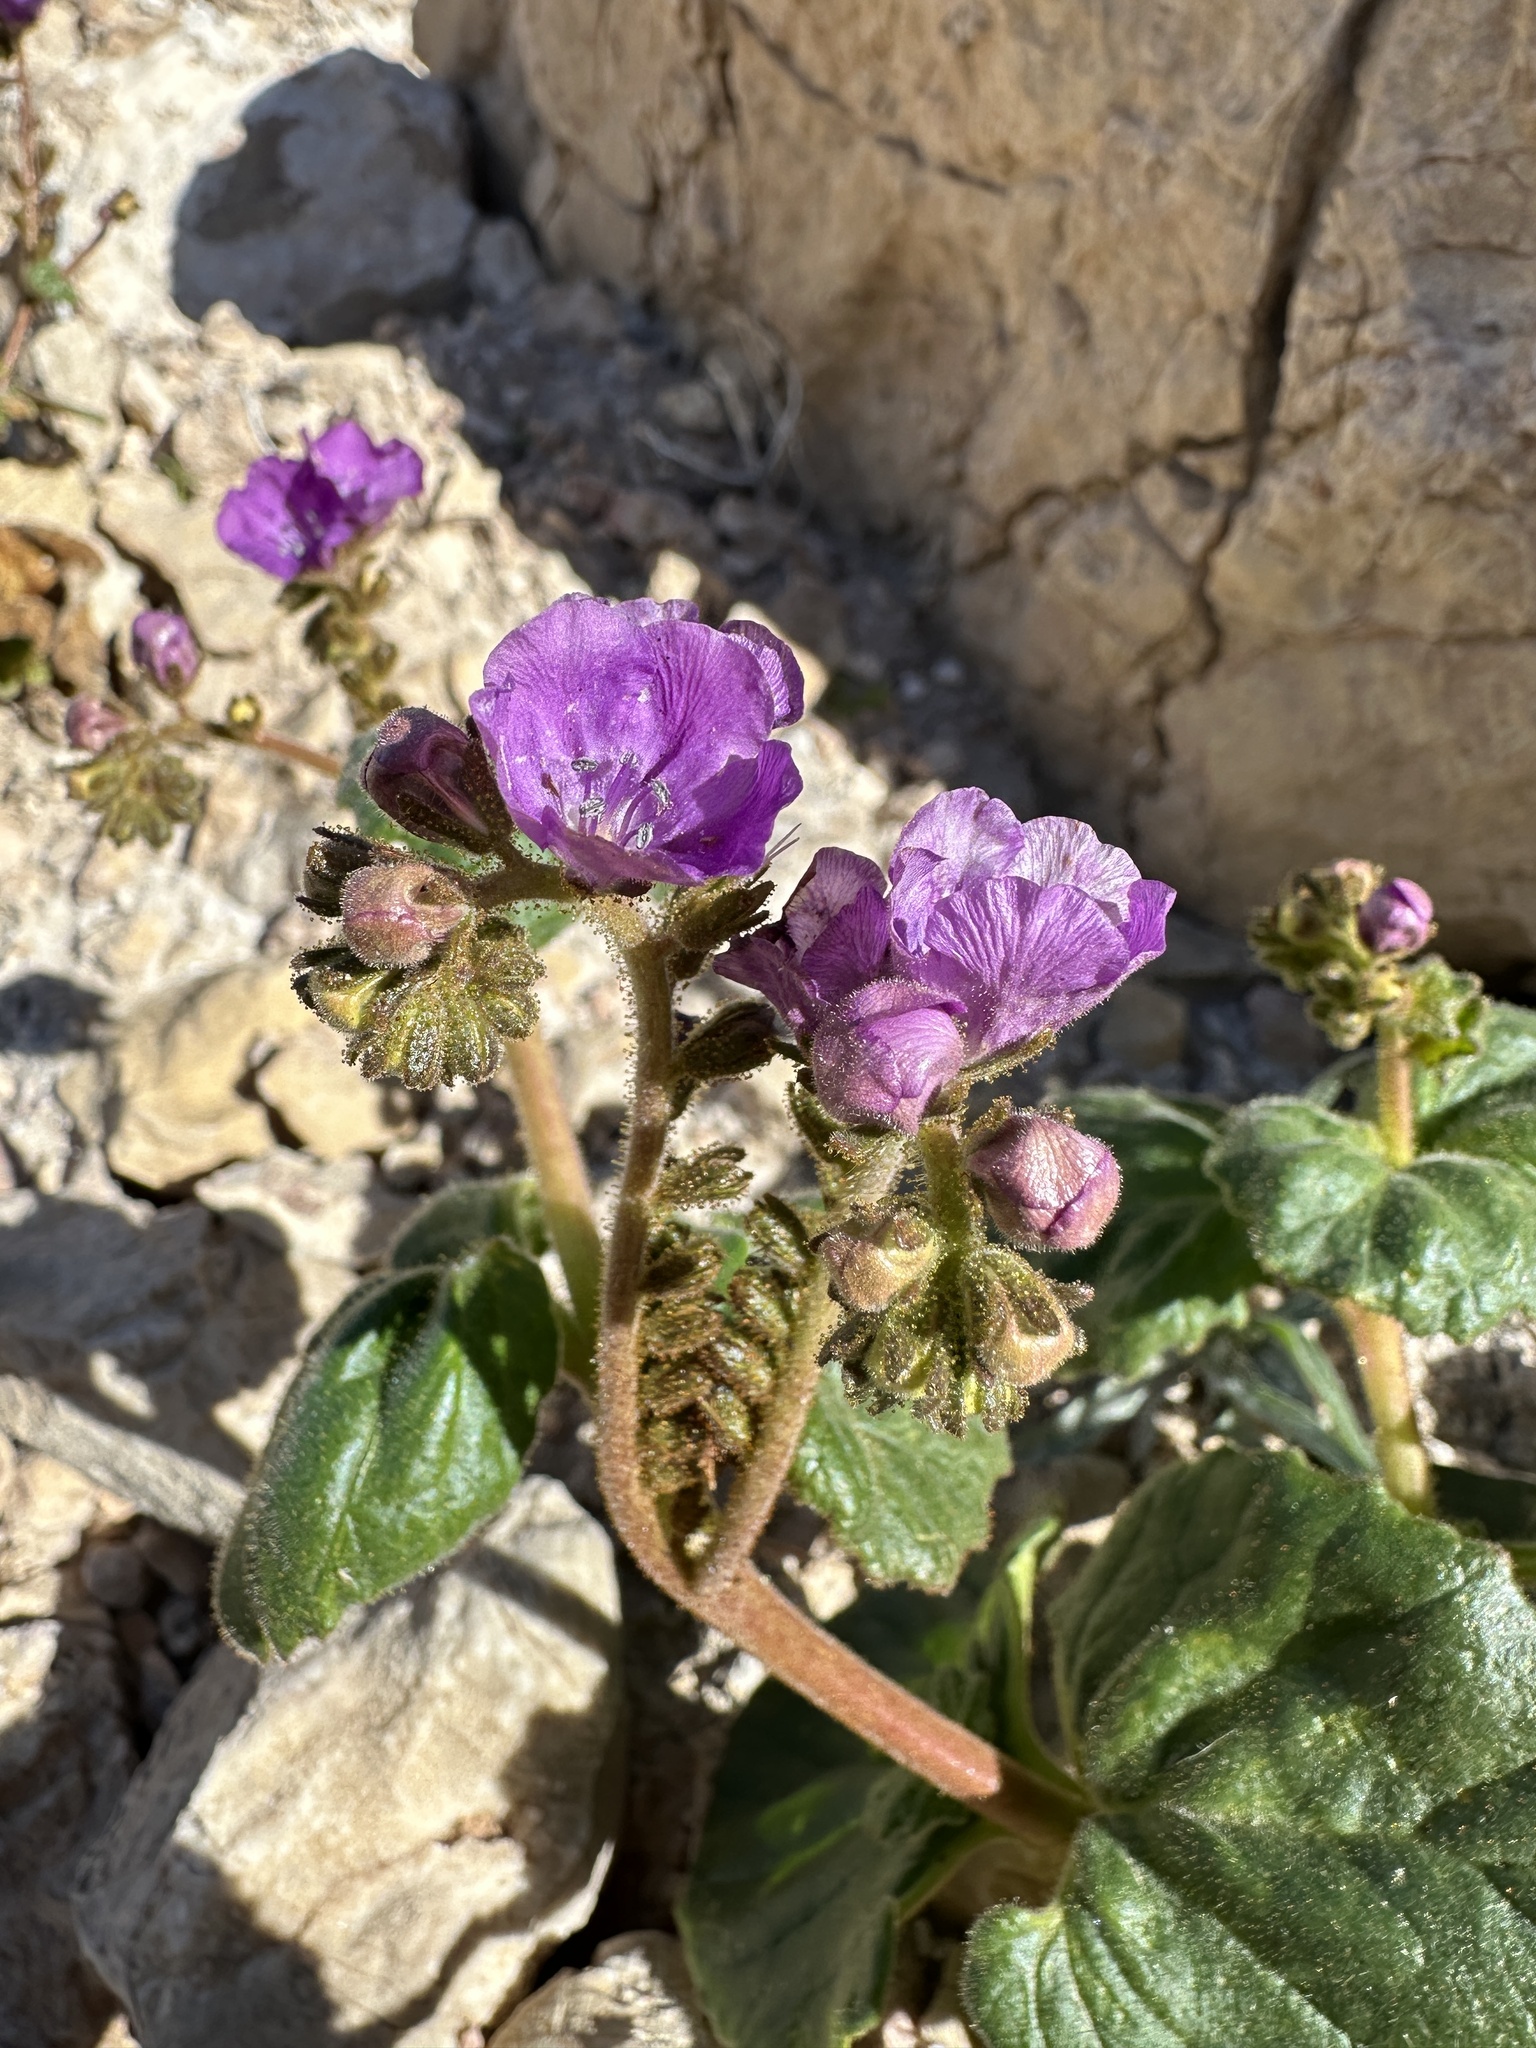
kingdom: Plantae
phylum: Tracheophyta
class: Magnoliopsida
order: Boraginales
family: Hydrophyllaceae
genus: Phacelia
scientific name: Phacelia calthifolia
